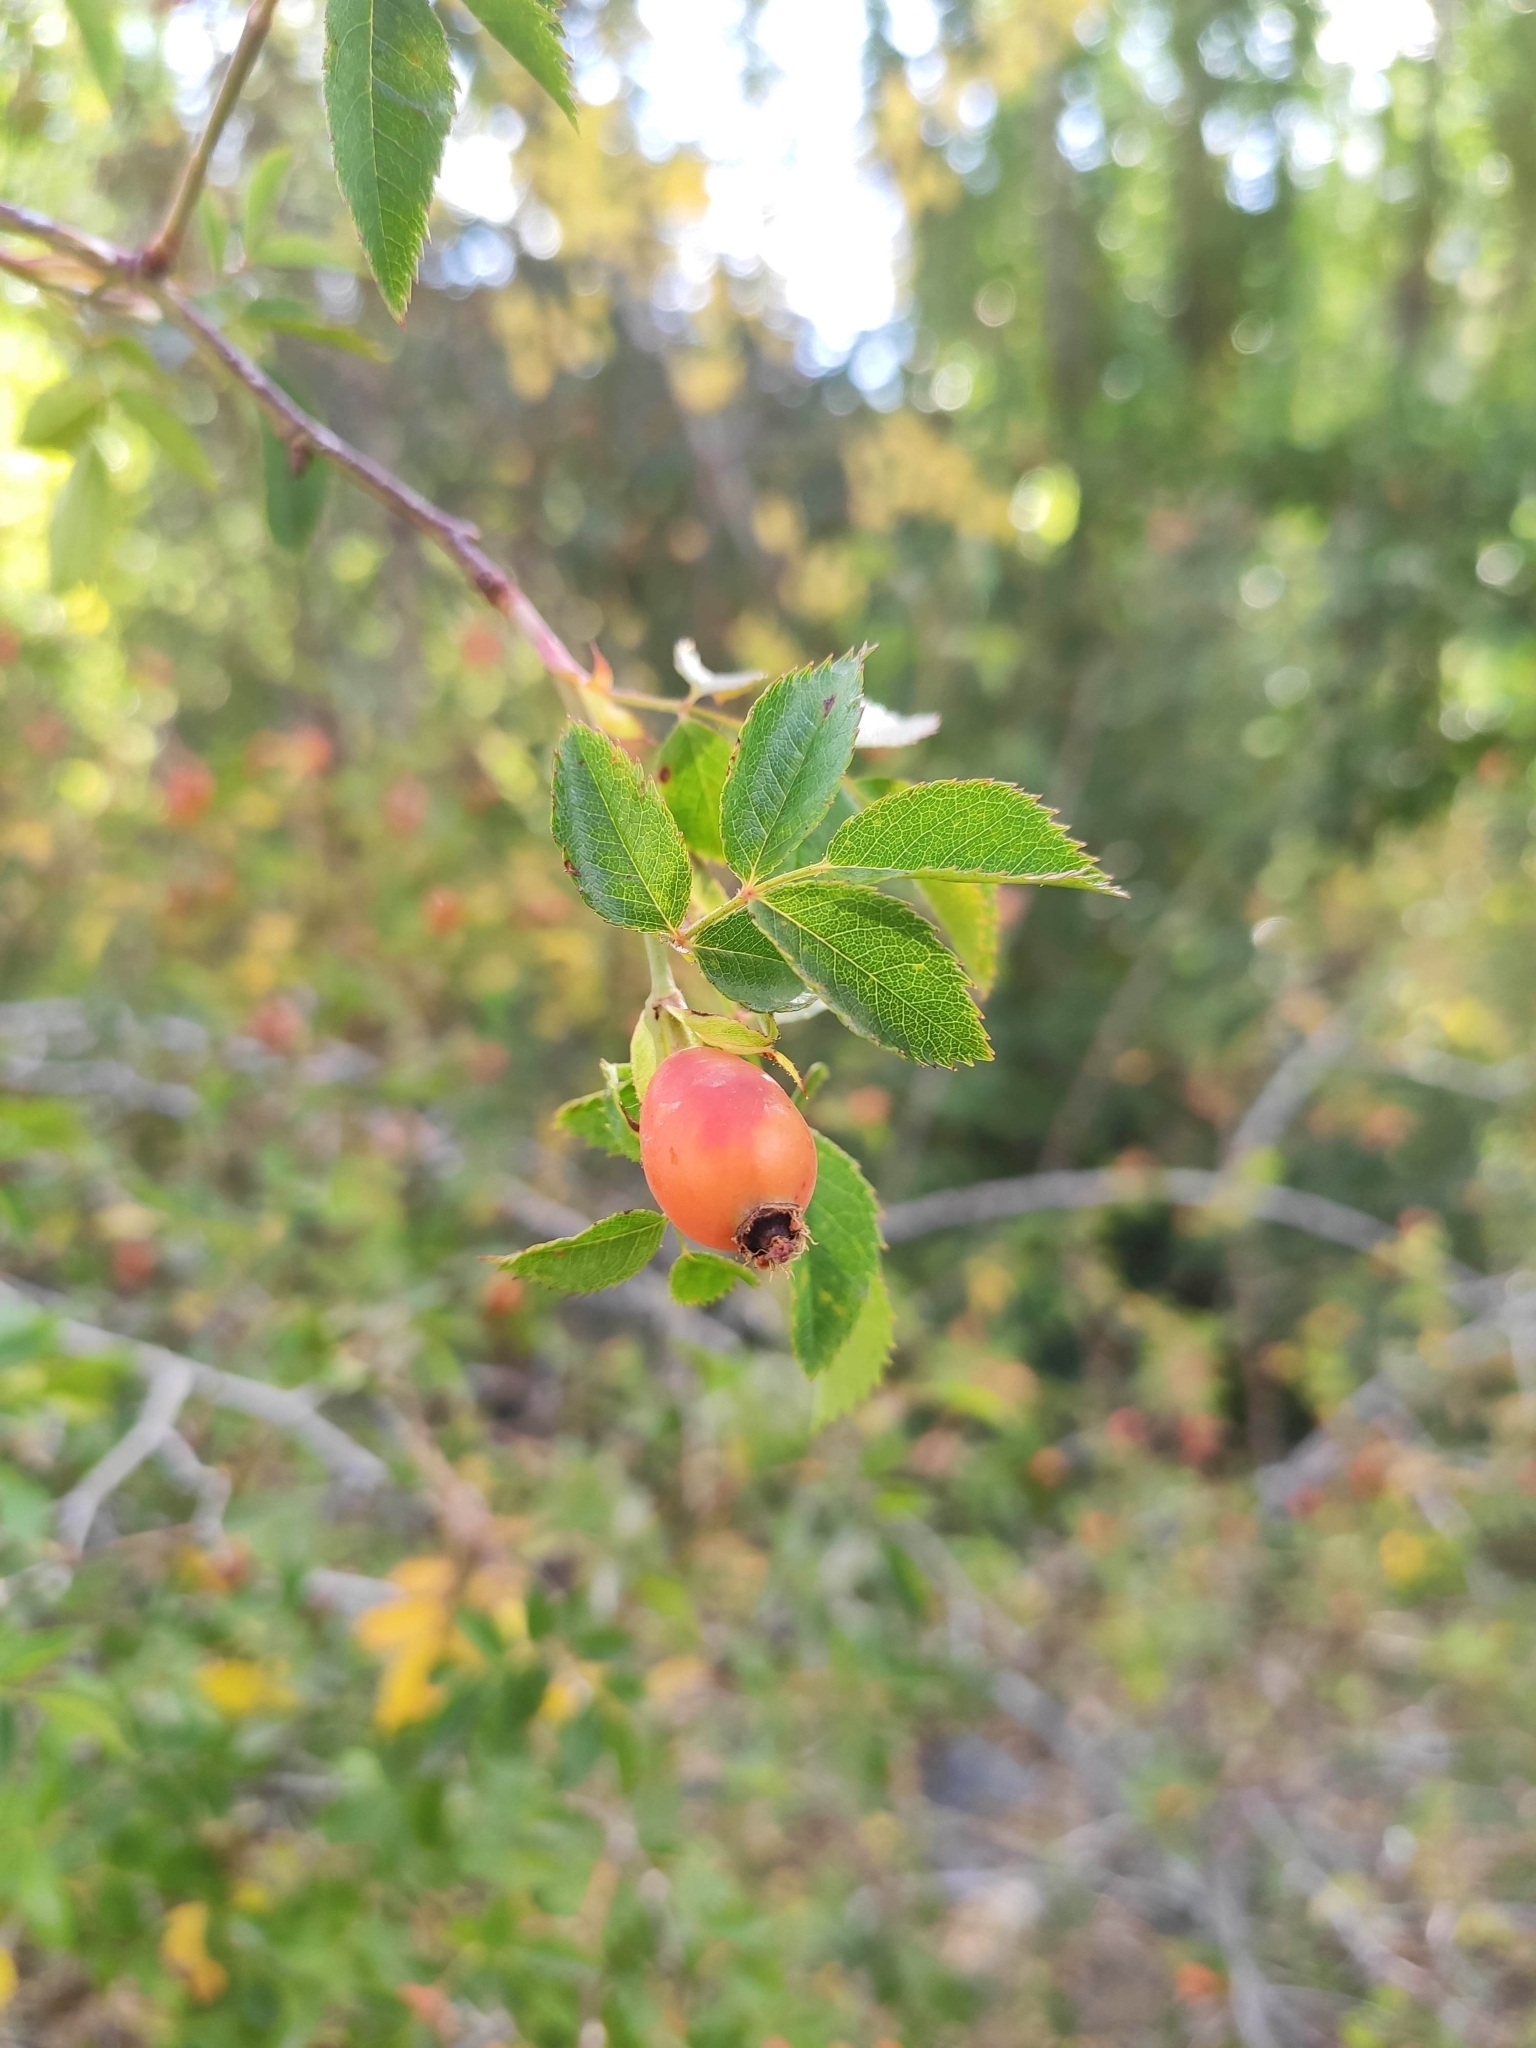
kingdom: Plantae
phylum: Tracheophyta
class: Magnoliopsida
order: Rosales
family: Rosaceae
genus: Rosa
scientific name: Rosa rubiginosa
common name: Sweet-briar
